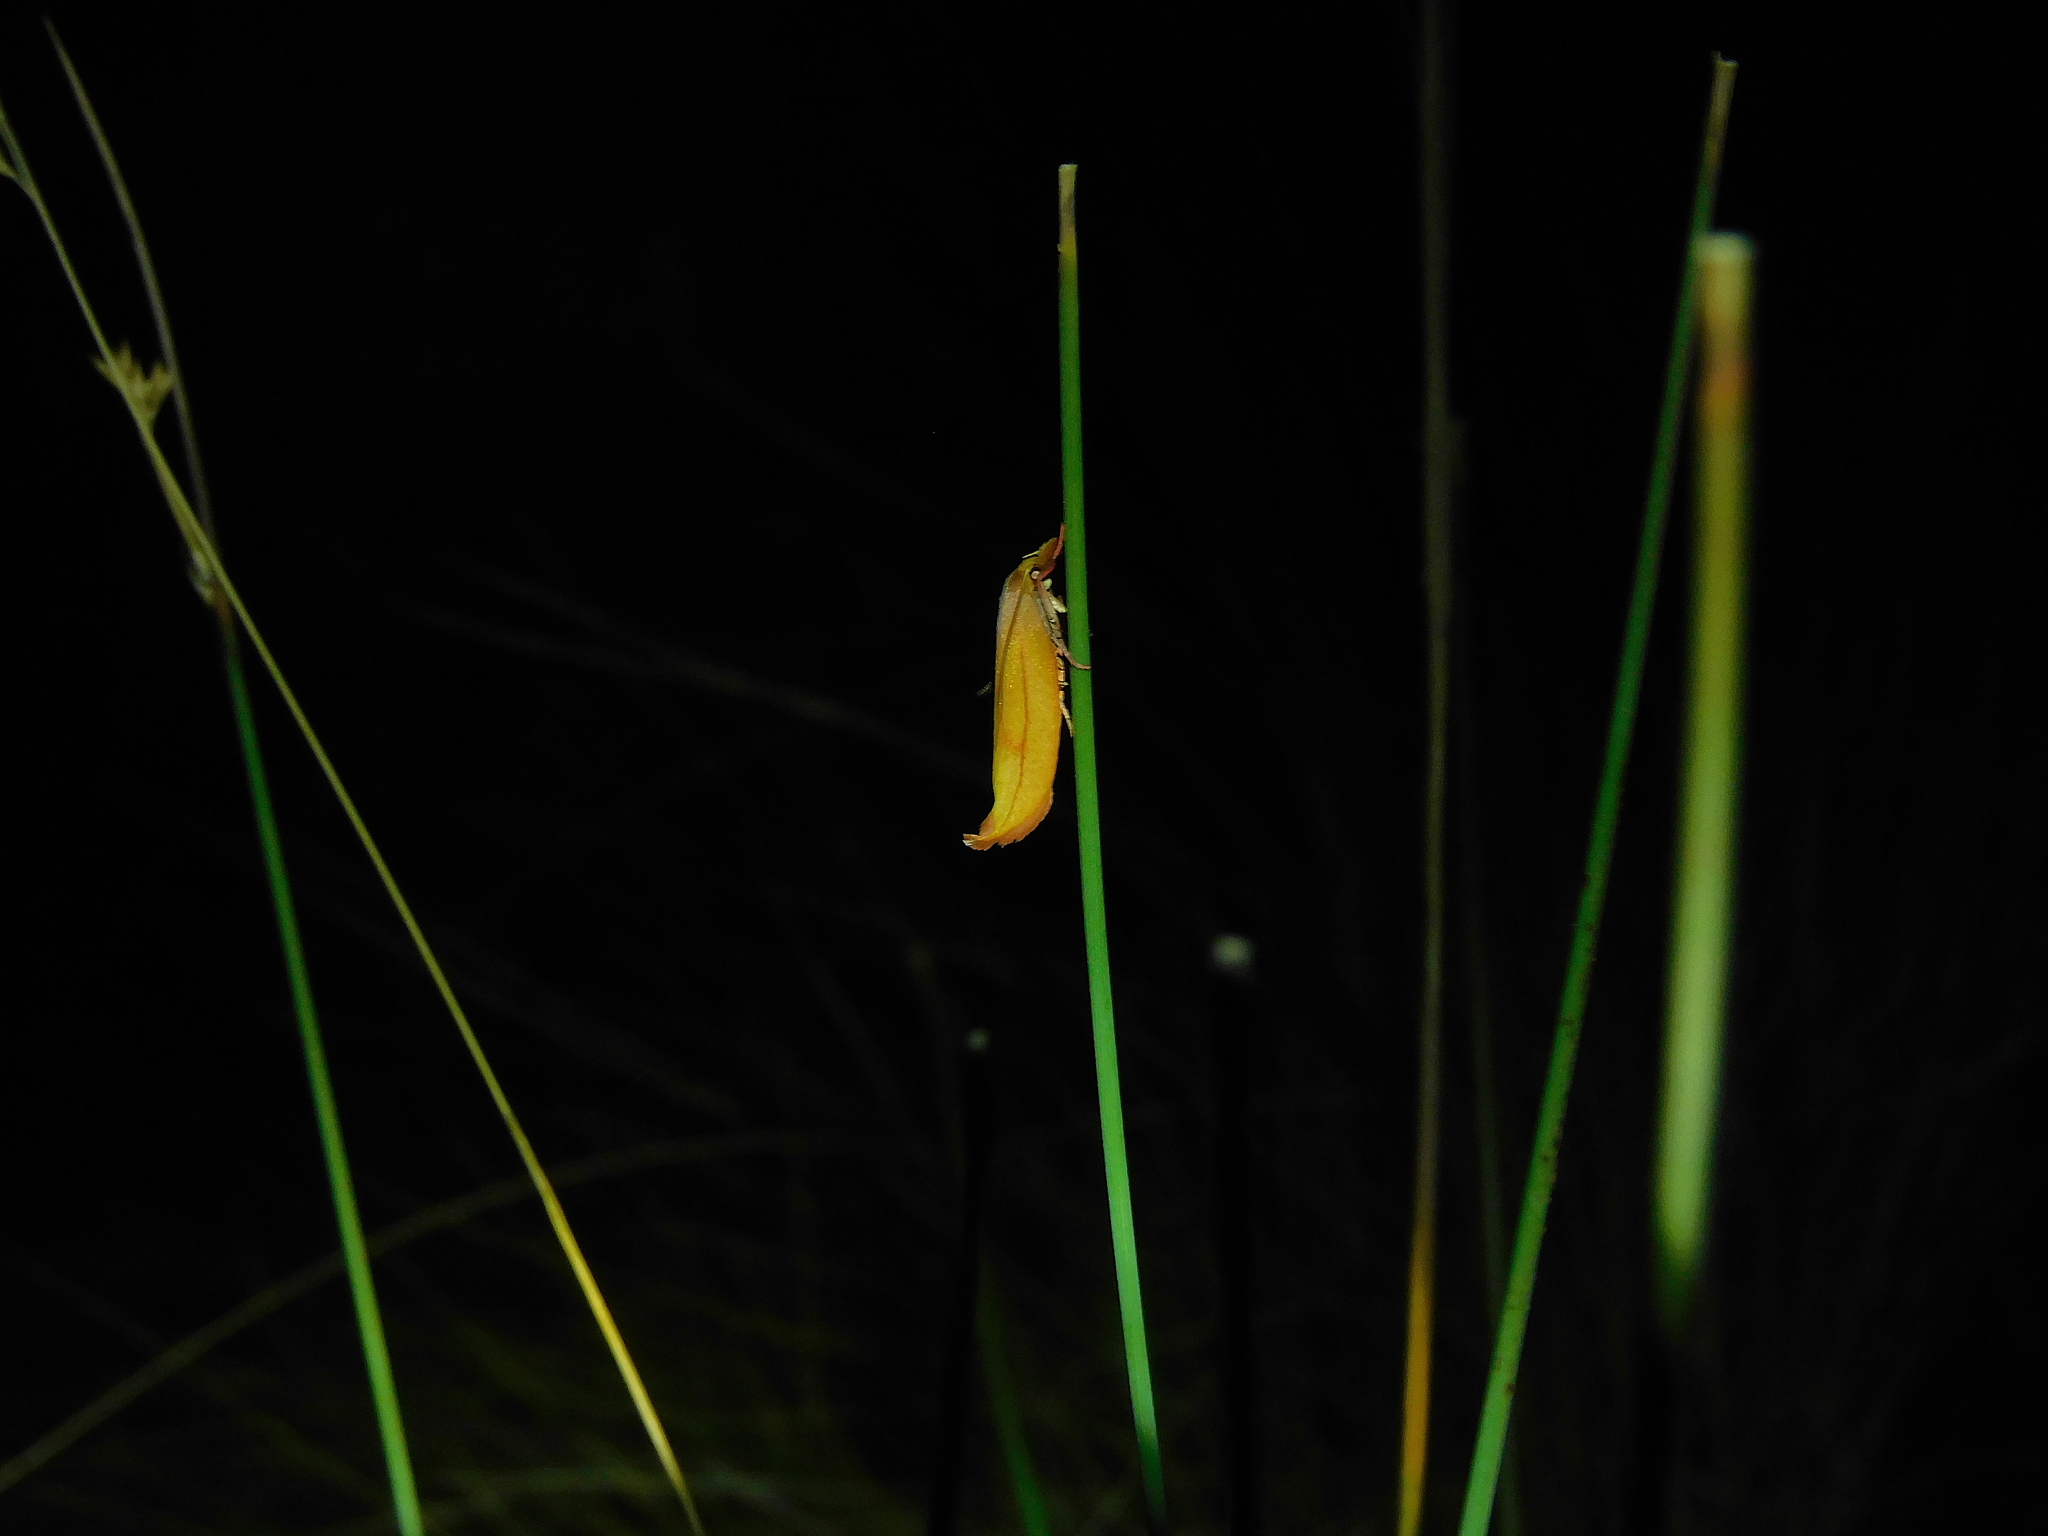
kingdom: Animalia
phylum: Arthropoda
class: Insecta
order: Lepidoptera
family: Oecophoridae
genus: Wingia
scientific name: Wingia aurata
